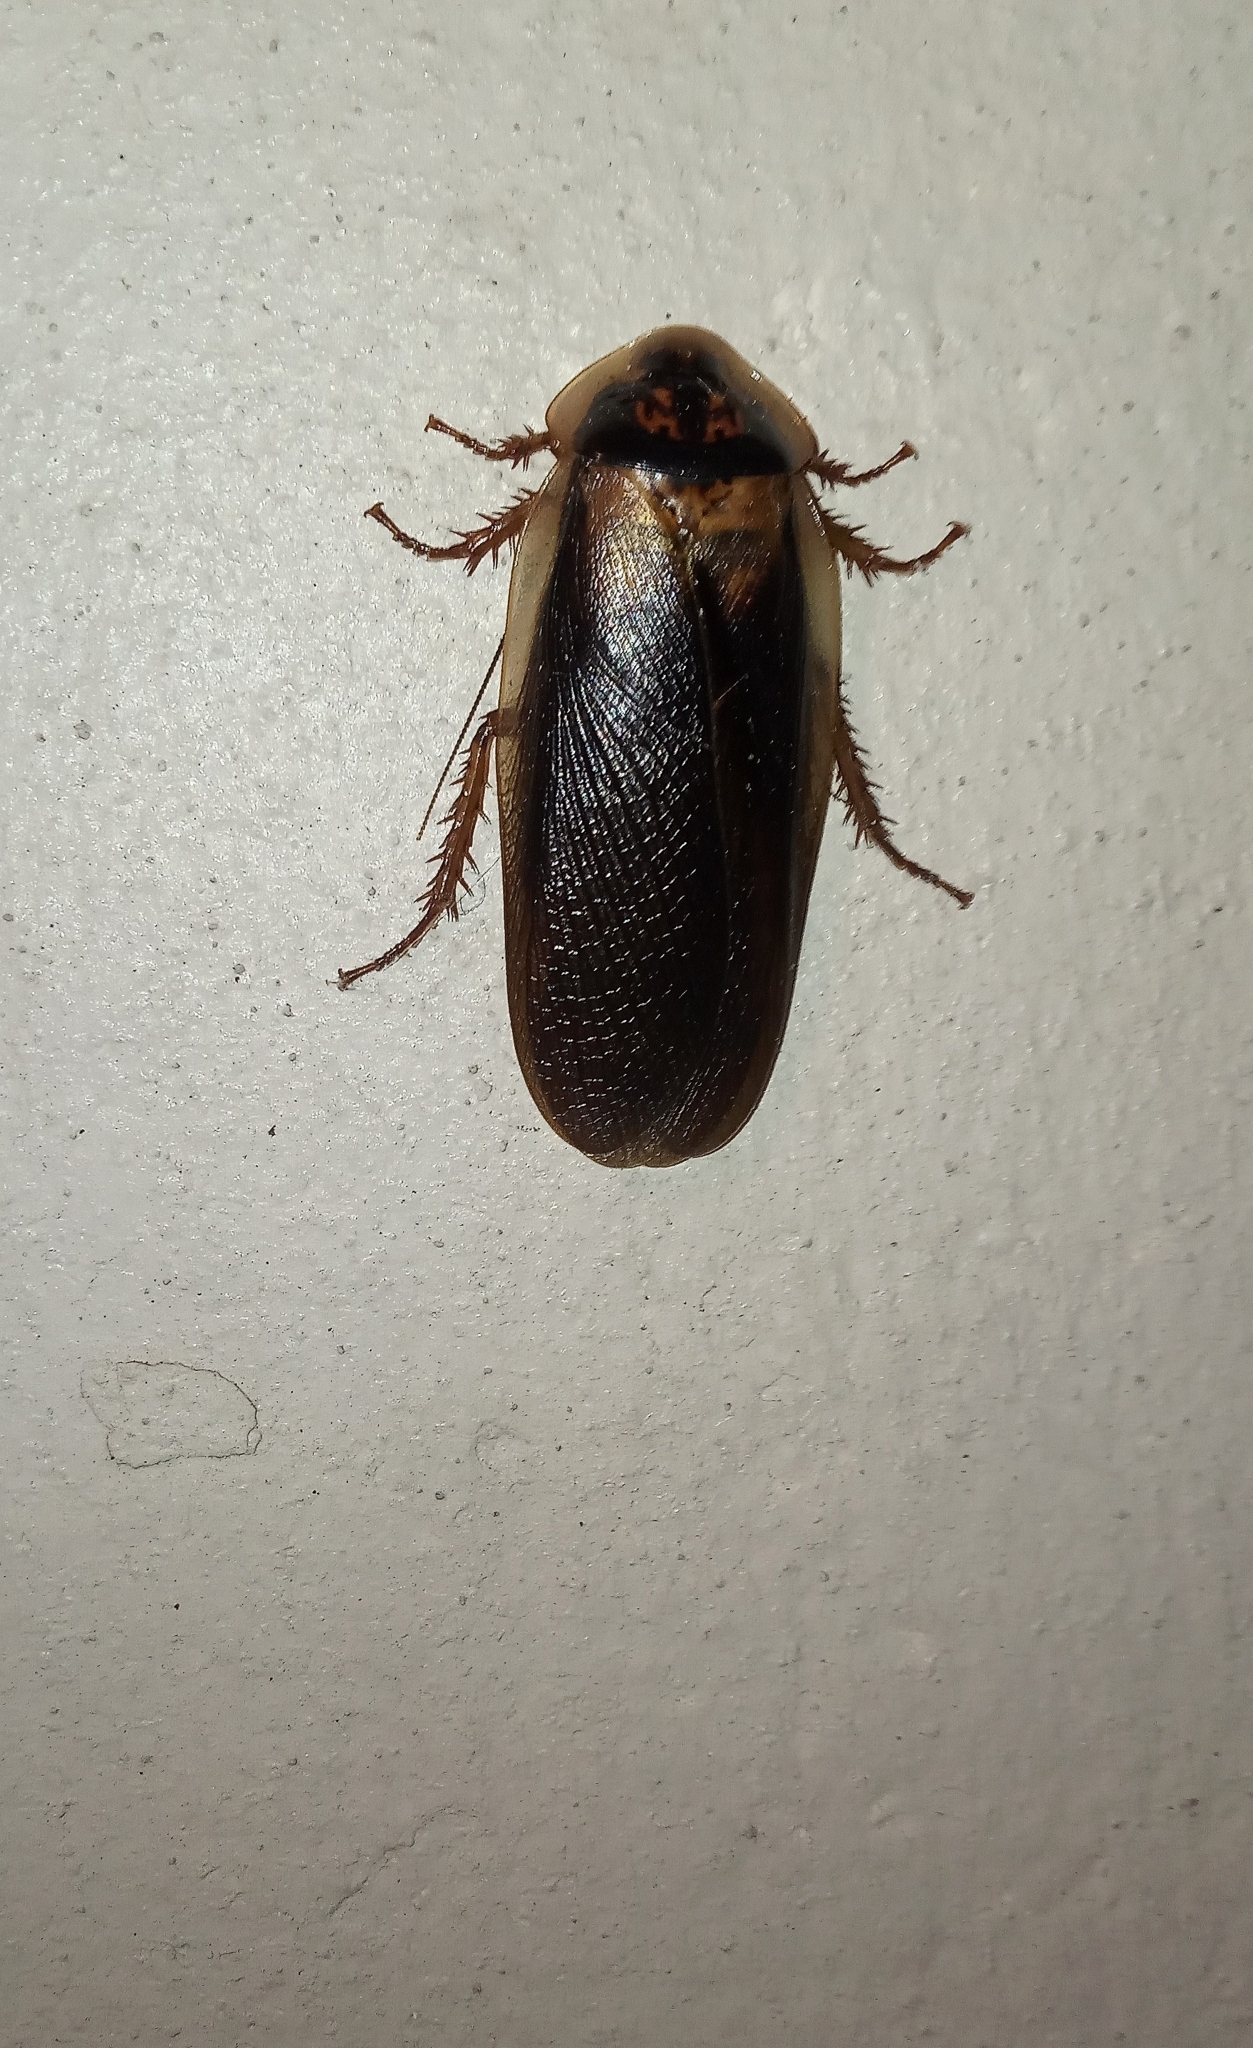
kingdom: Animalia
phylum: Arthropoda
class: Insecta
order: Blattodea
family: Blaberidae
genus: Blaptica
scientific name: Blaptica dubia
